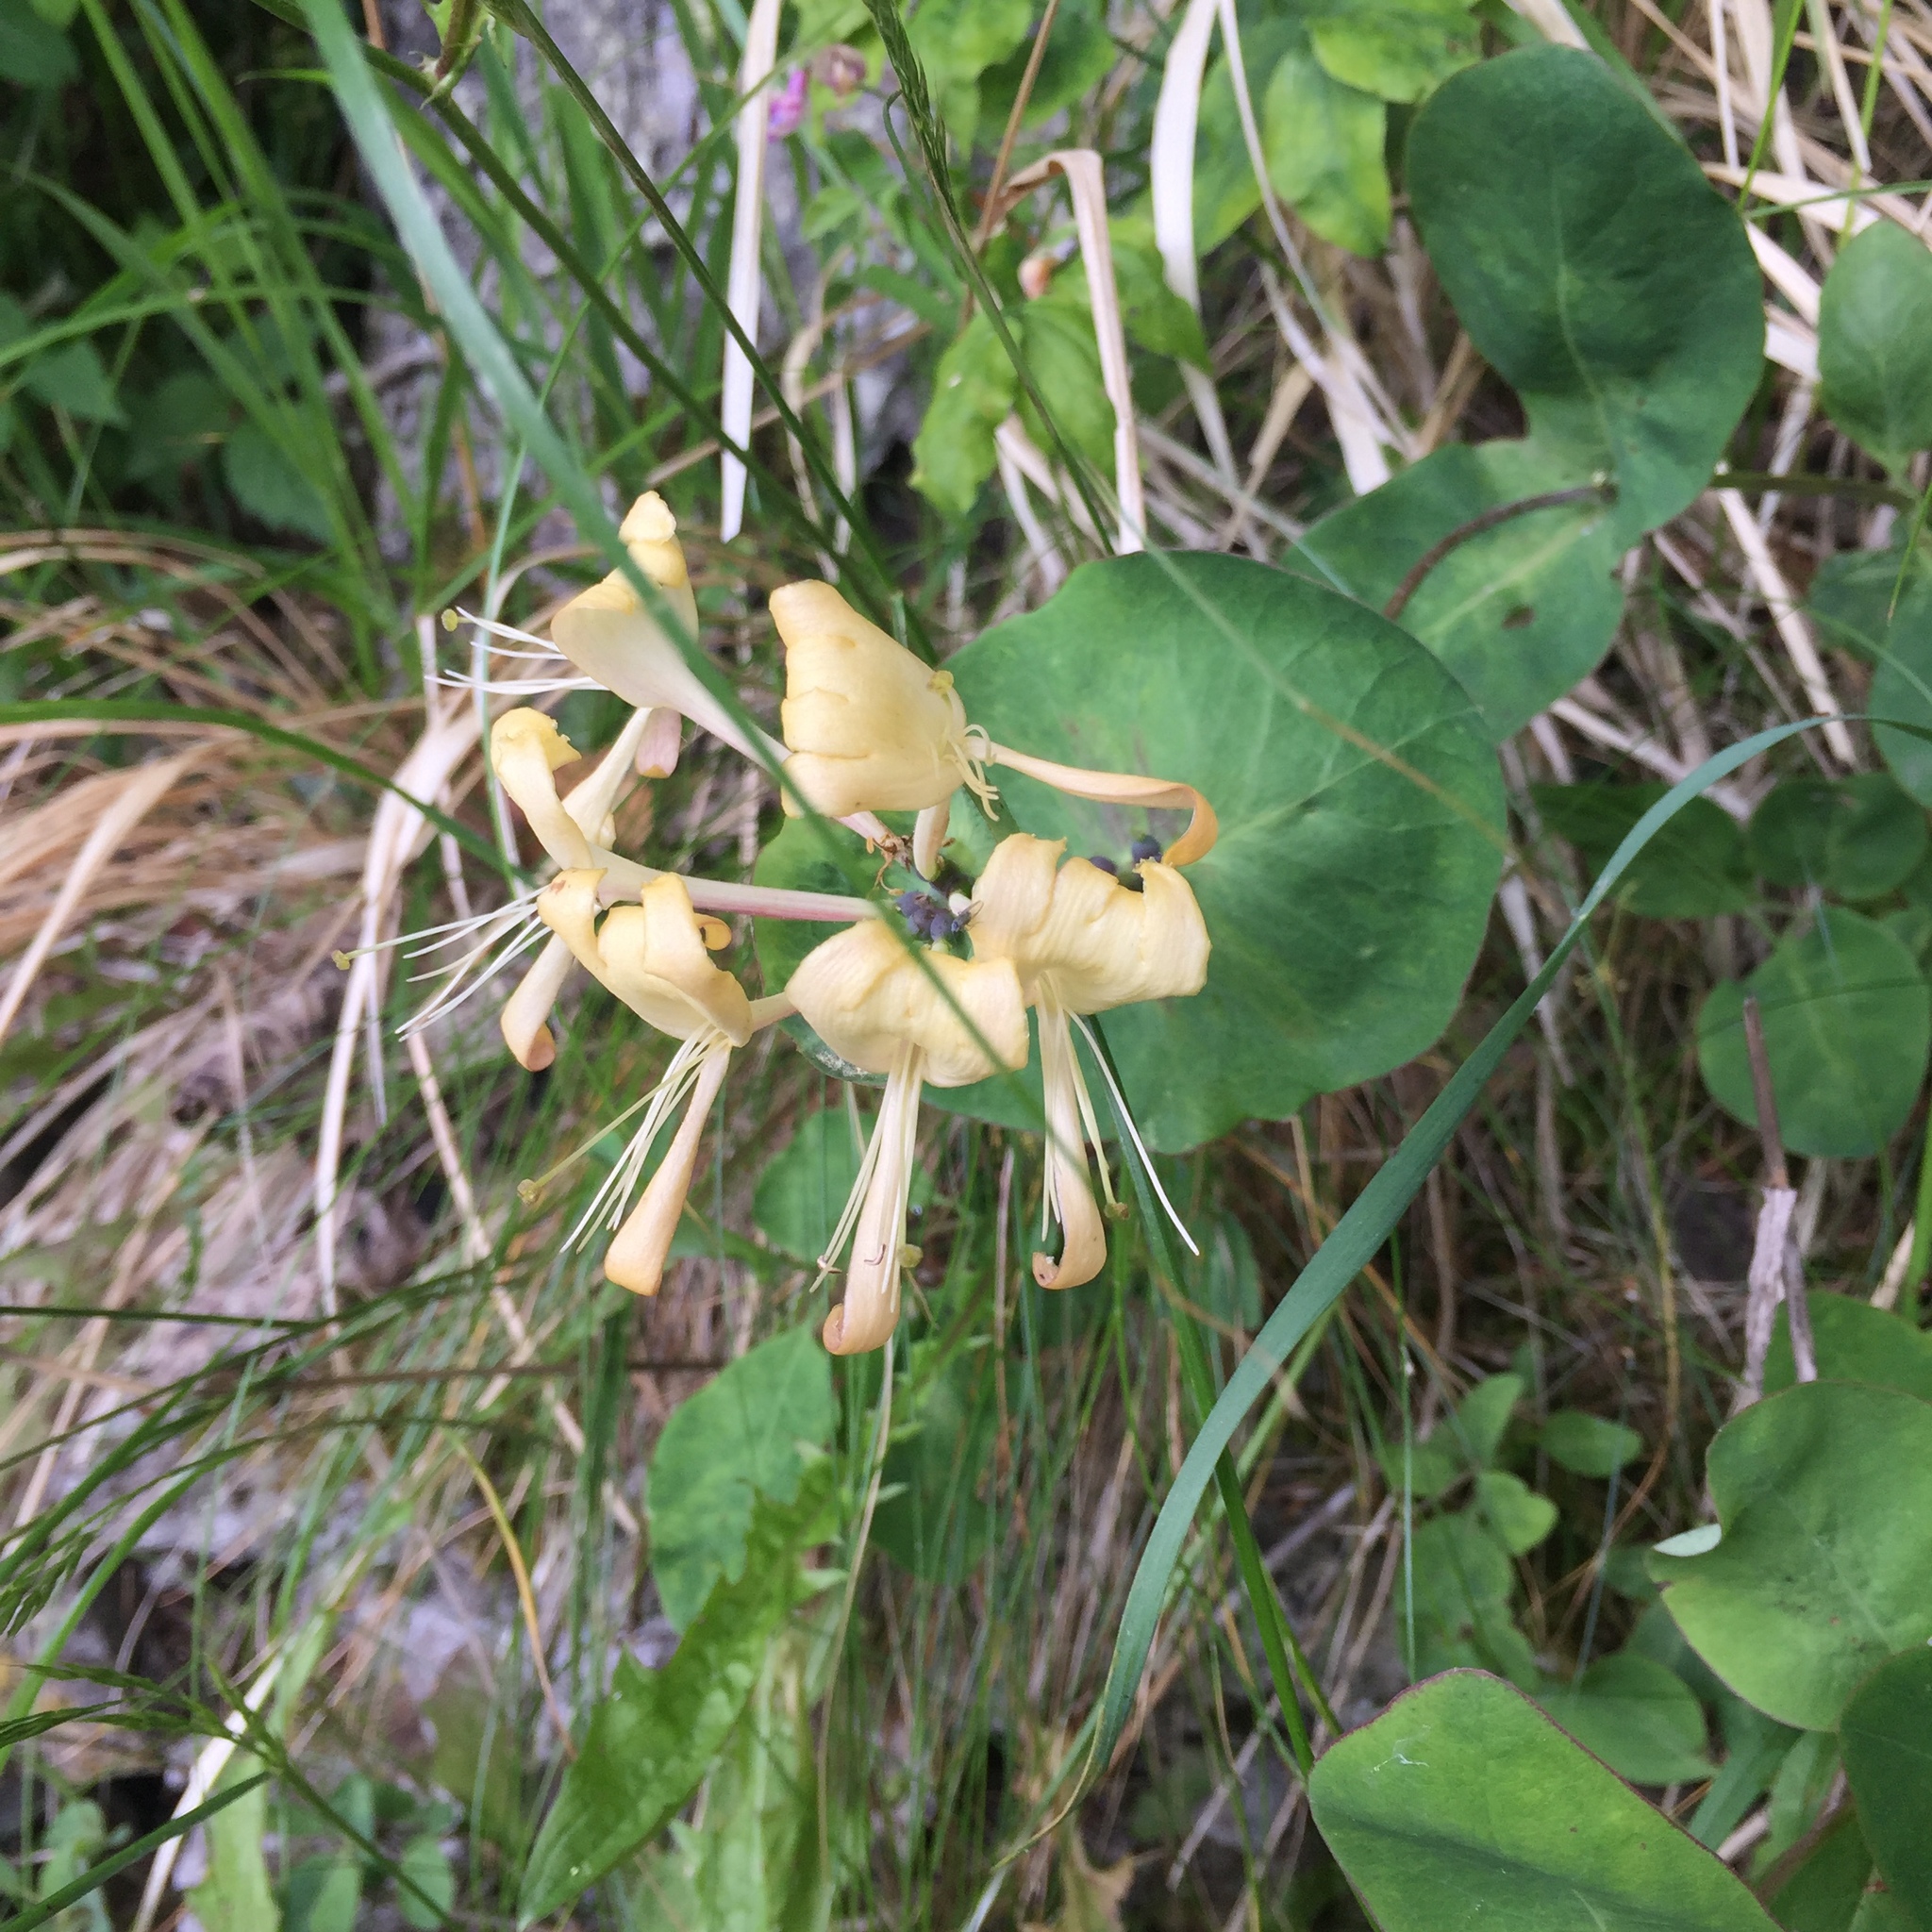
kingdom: Plantae
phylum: Tracheophyta
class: Magnoliopsida
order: Dipsacales
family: Caprifoliaceae
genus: Lonicera
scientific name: Lonicera caprifolium
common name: Perfoliate honeysuckle
